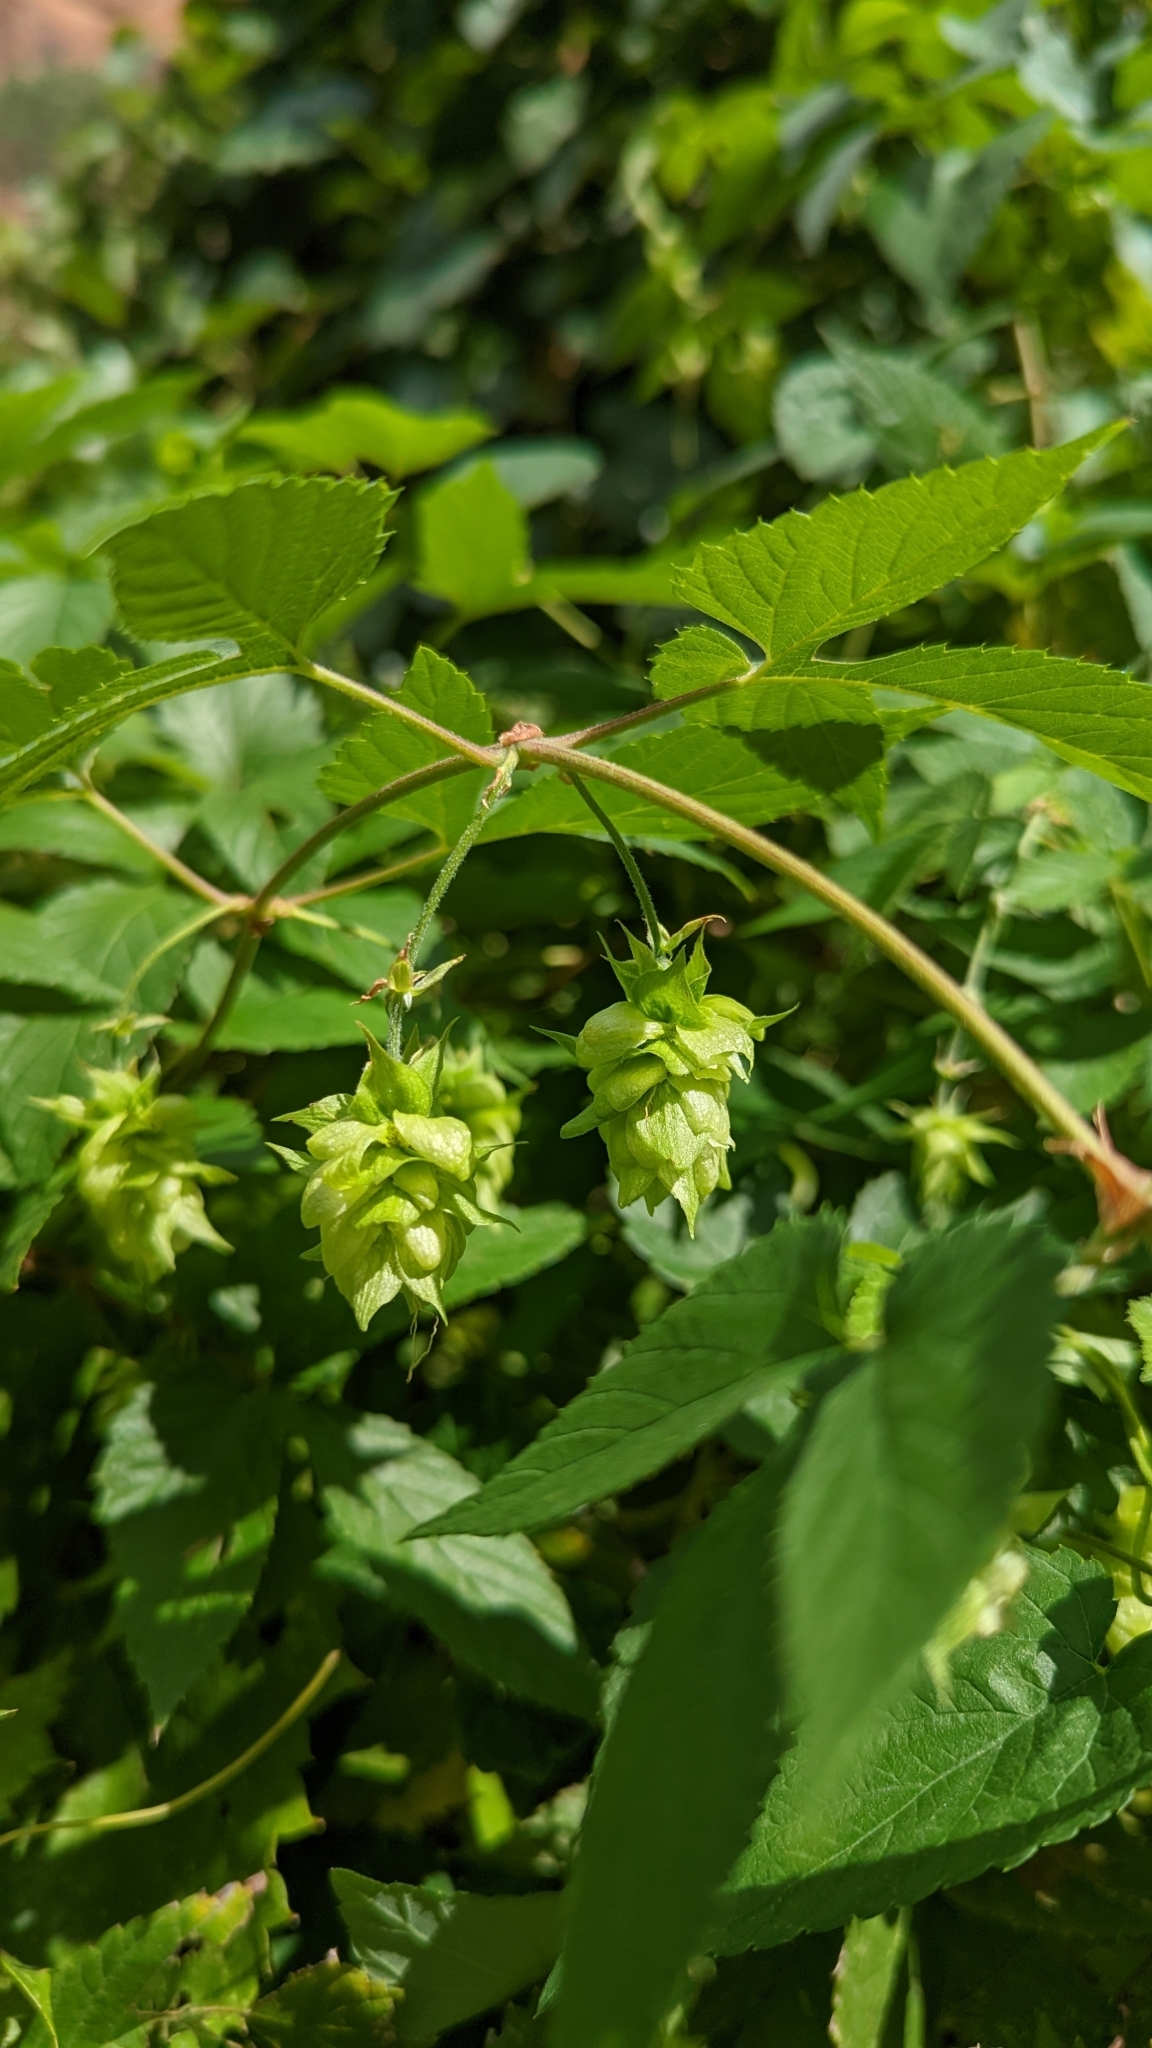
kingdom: Plantae
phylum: Tracheophyta
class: Magnoliopsida
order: Rosales
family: Cannabaceae
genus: Humulus
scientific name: Humulus lupulus
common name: Hop
